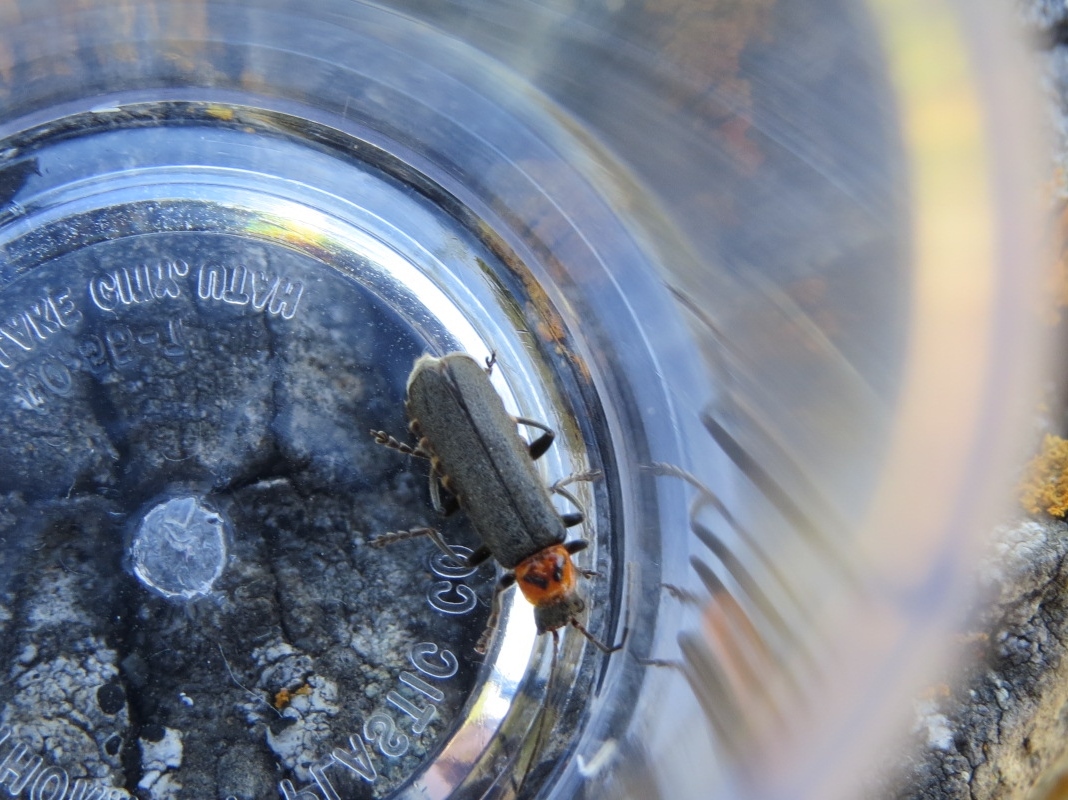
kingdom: Animalia
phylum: Arthropoda
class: Insecta
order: Coleoptera
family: Cantharidae
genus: Cyrtomoptera
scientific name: Cyrtomoptera divisa
